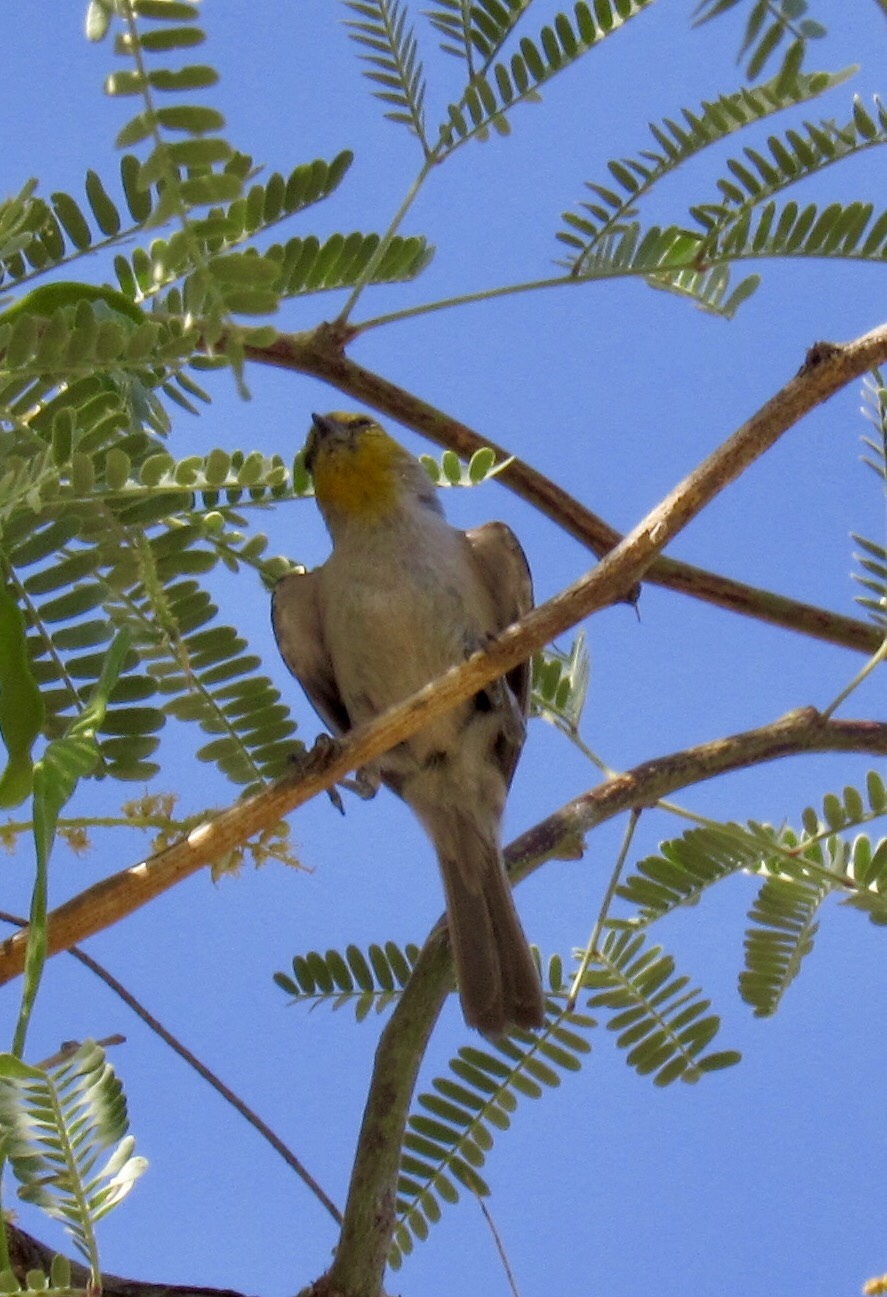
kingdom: Animalia
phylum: Chordata
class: Aves
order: Passeriformes
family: Remizidae
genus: Auriparus
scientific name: Auriparus flaviceps
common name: Verdin
